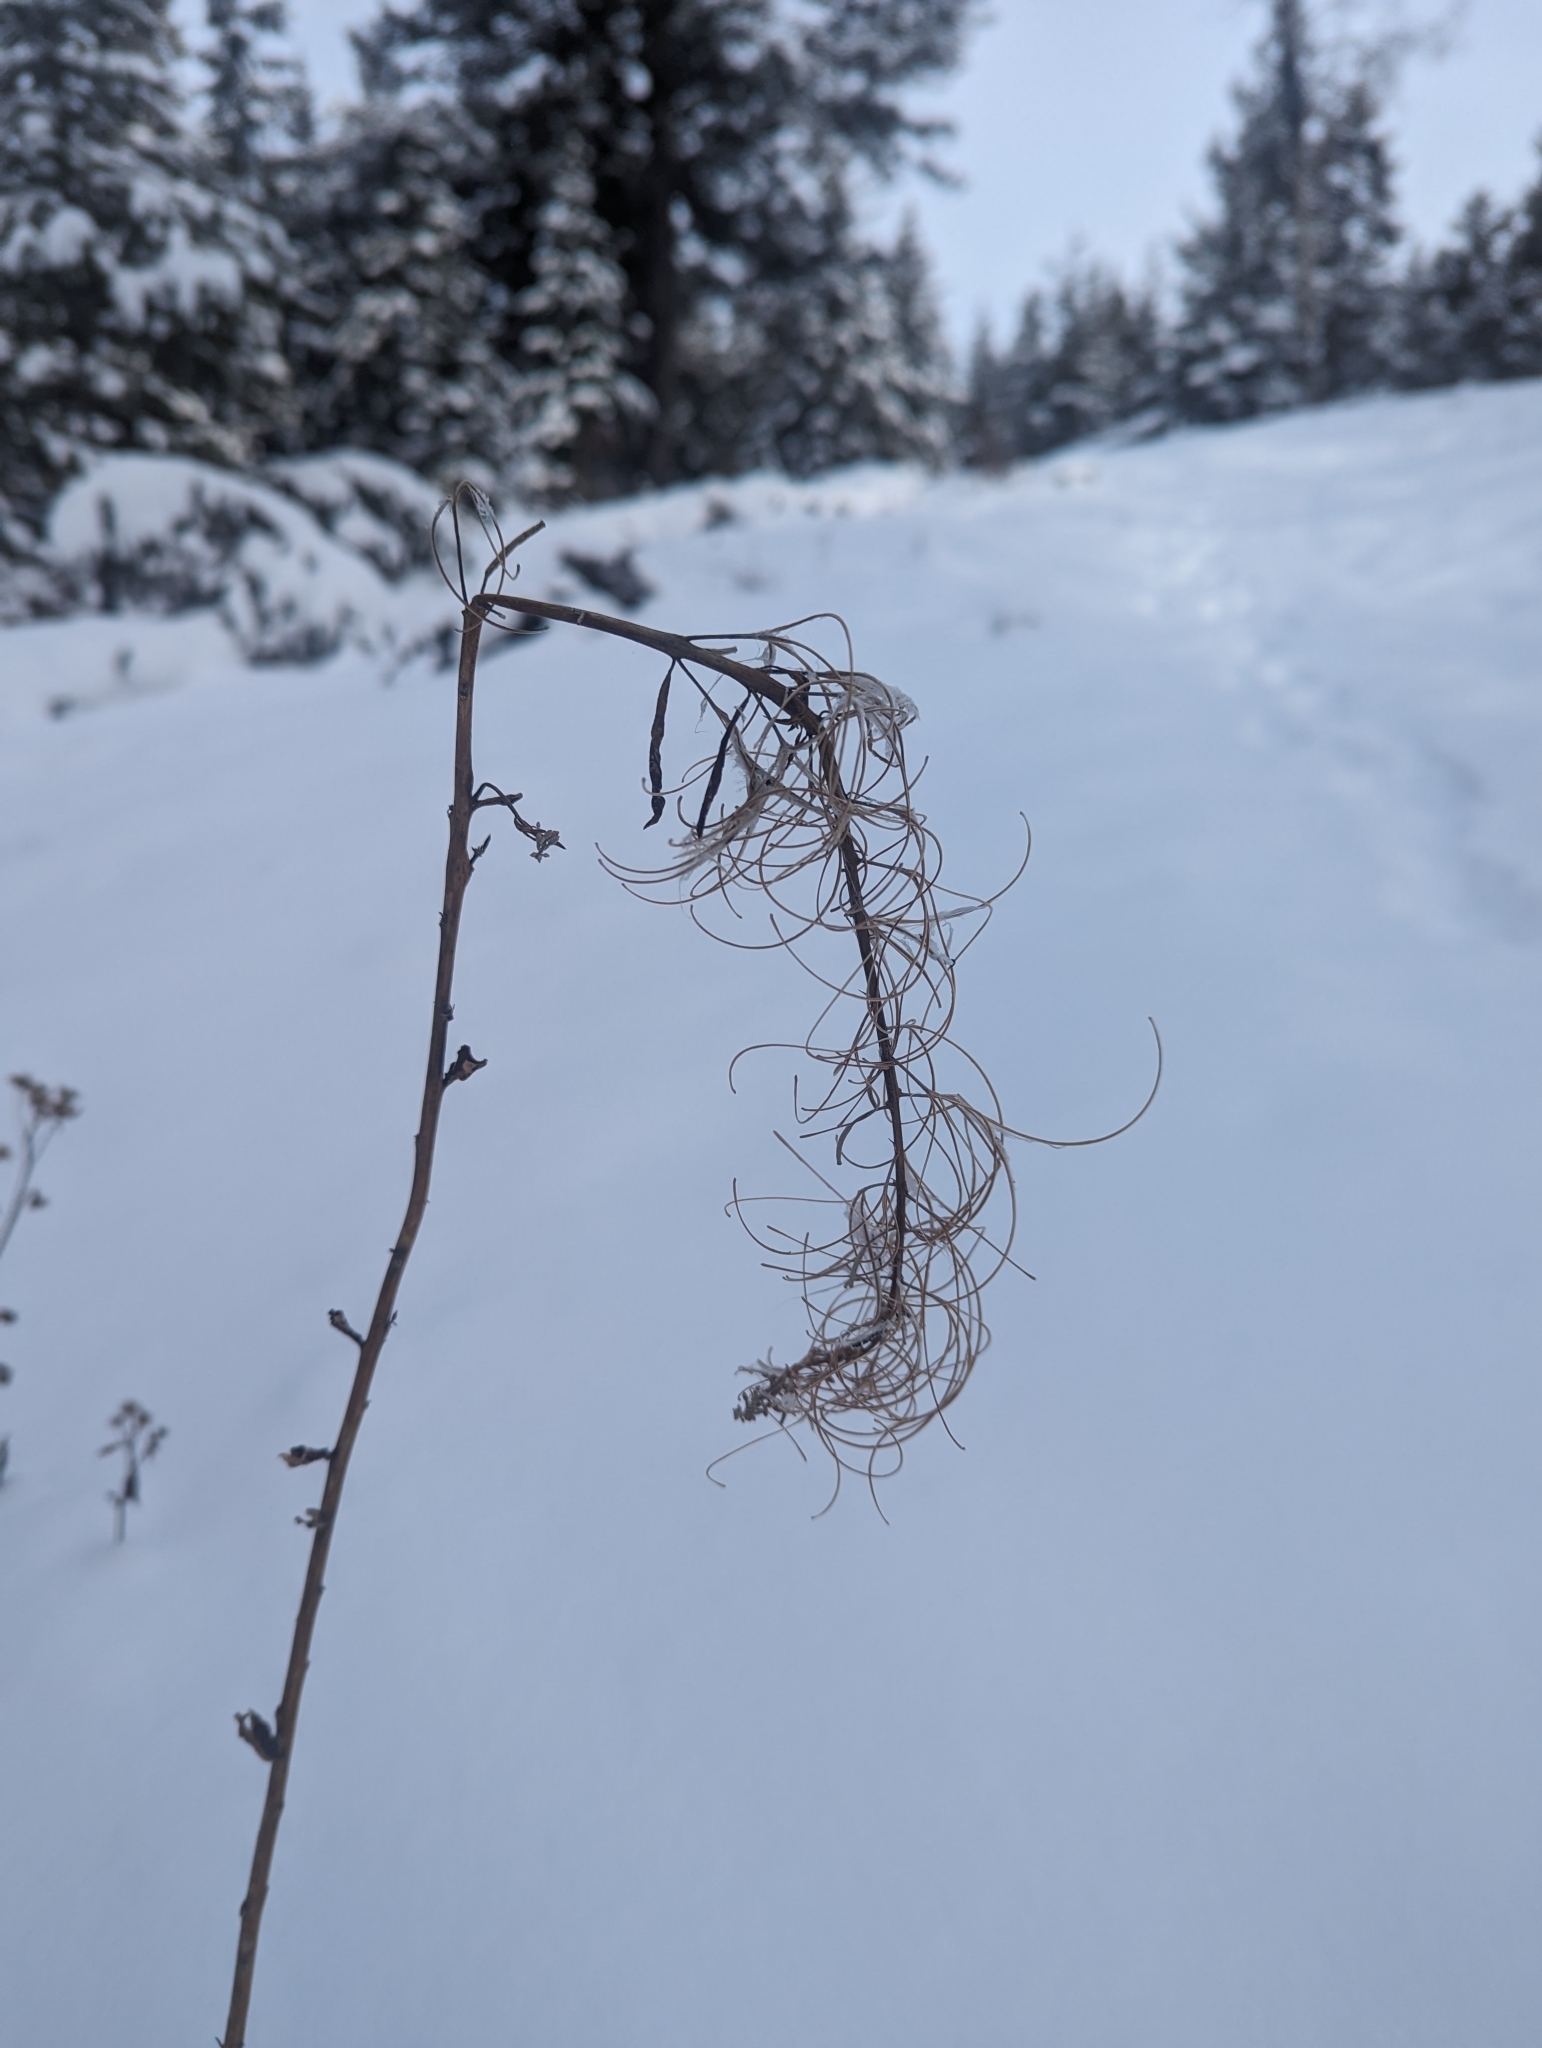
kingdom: Plantae
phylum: Tracheophyta
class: Magnoliopsida
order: Myrtales
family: Onagraceae
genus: Chamaenerion
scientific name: Chamaenerion angustifolium
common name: Fireweed
